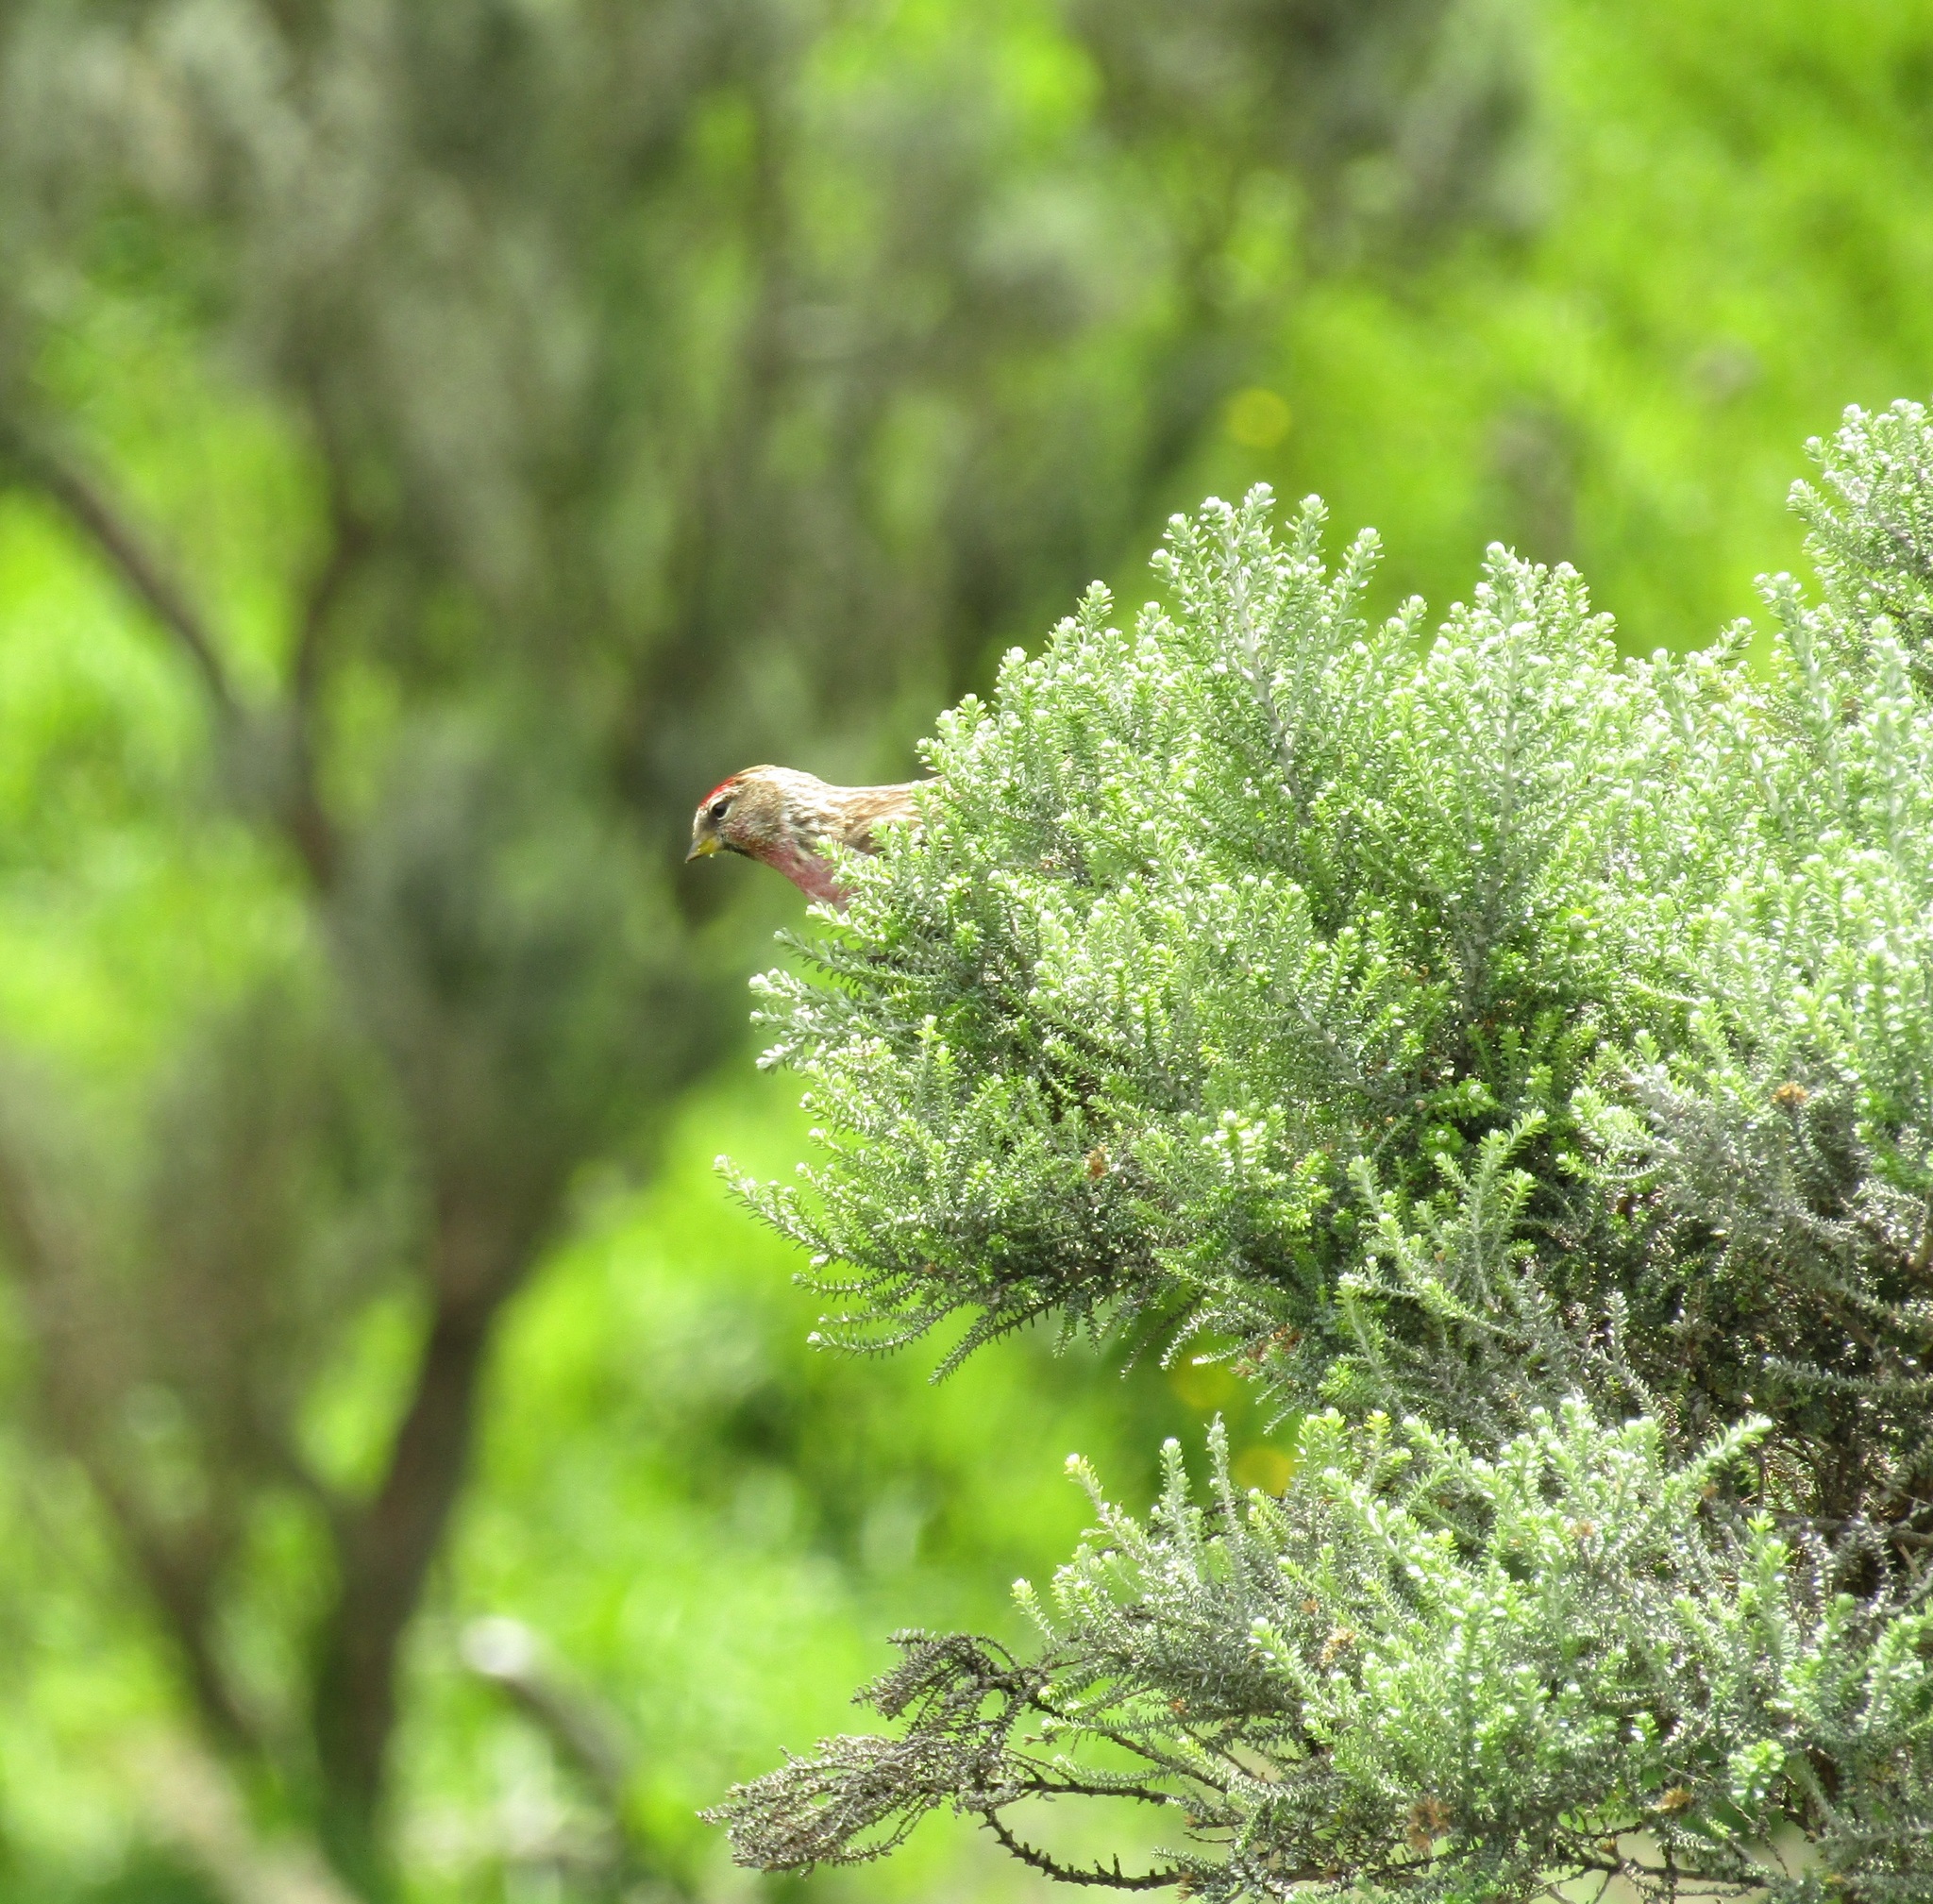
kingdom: Animalia
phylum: Chordata
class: Aves
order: Passeriformes
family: Fringillidae
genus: Acanthis
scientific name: Acanthis flammea
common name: Common redpoll
